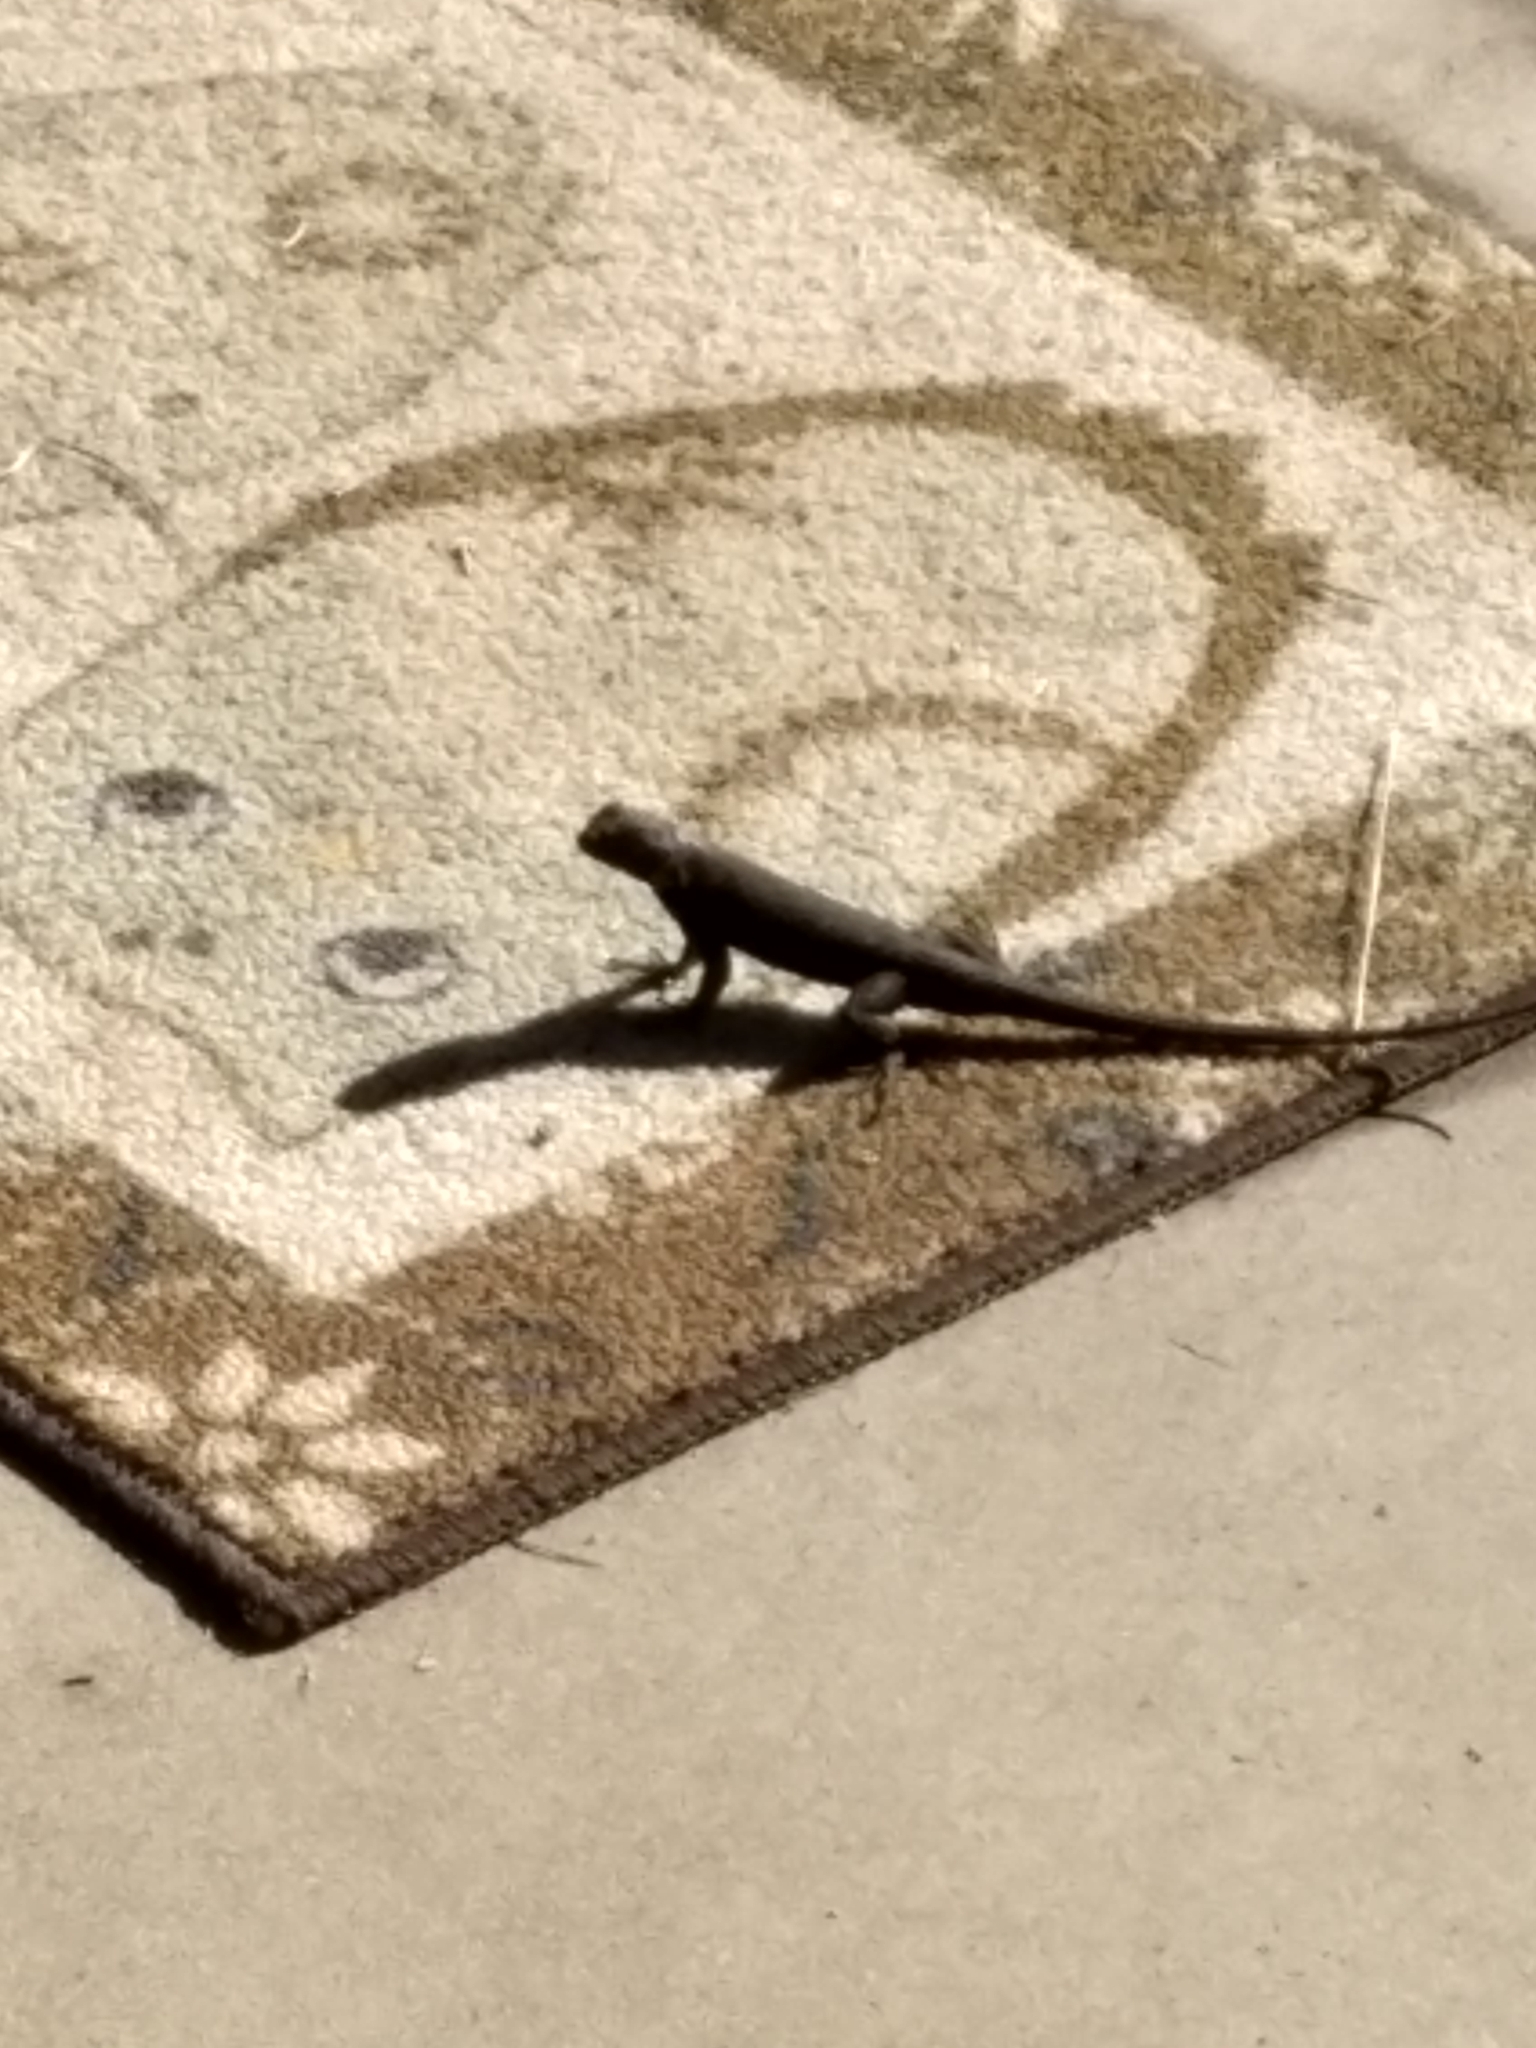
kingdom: Animalia
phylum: Chordata
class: Squamata
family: Phrynosomatidae
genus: Sceloporus
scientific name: Sceloporus occidentalis
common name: Western fence lizard
